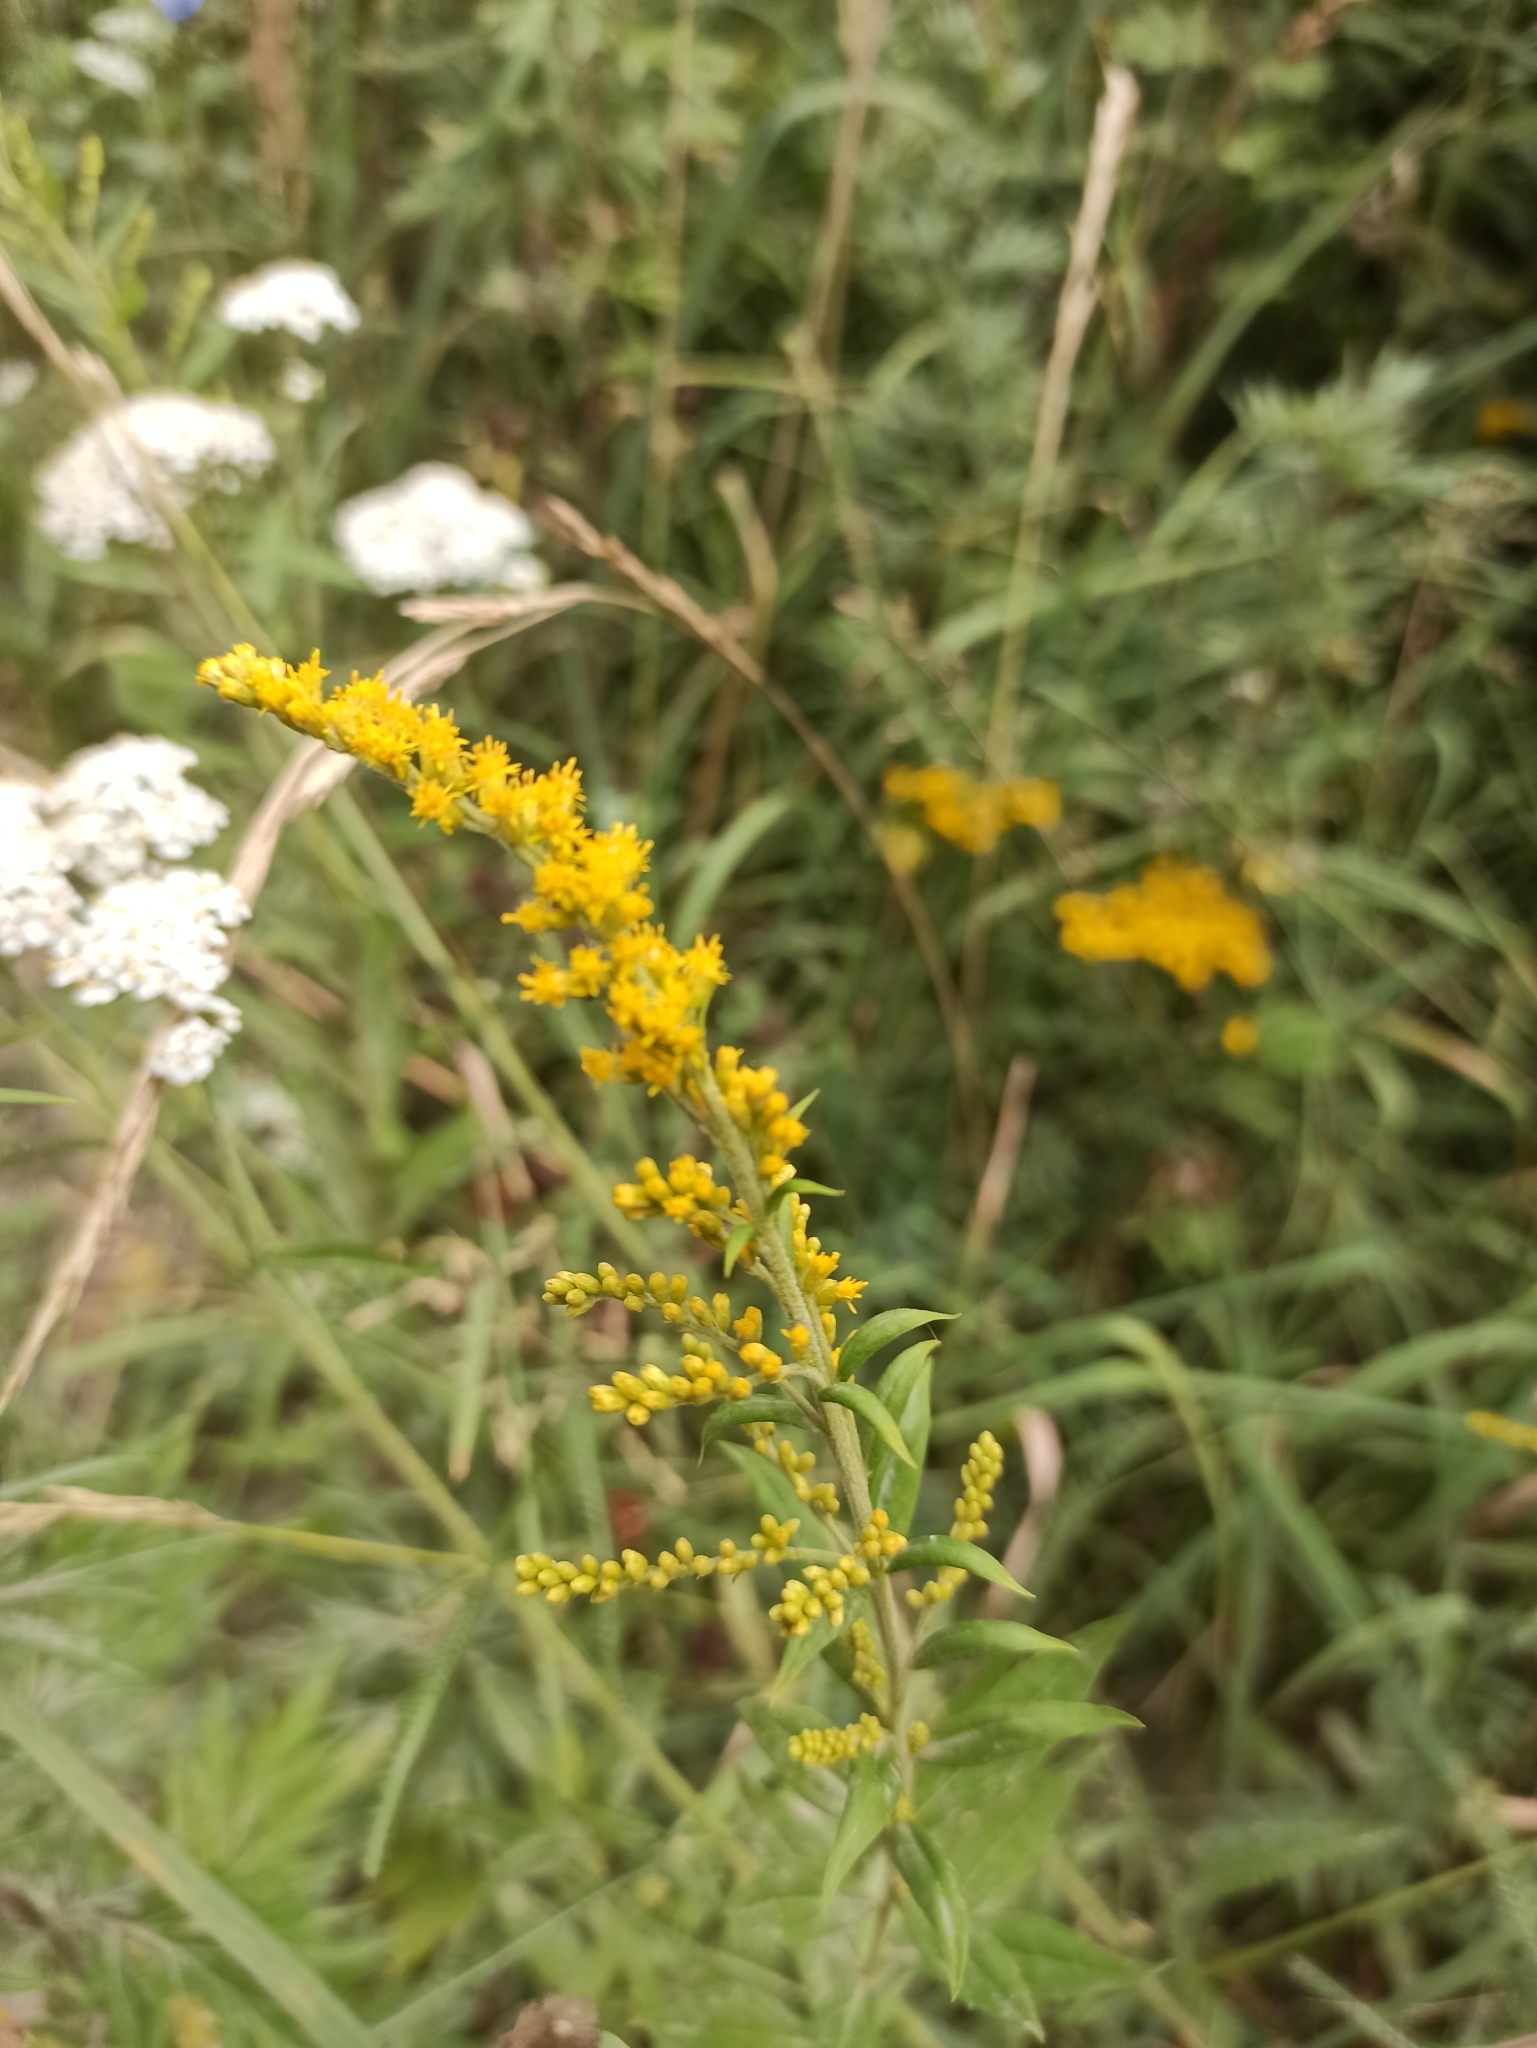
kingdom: Plantae
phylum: Tracheophyta
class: Magnoliopsida
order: Asterales
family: Asteraceae
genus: Solidago
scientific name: Solidago canadensis
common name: Canada goldenrod
